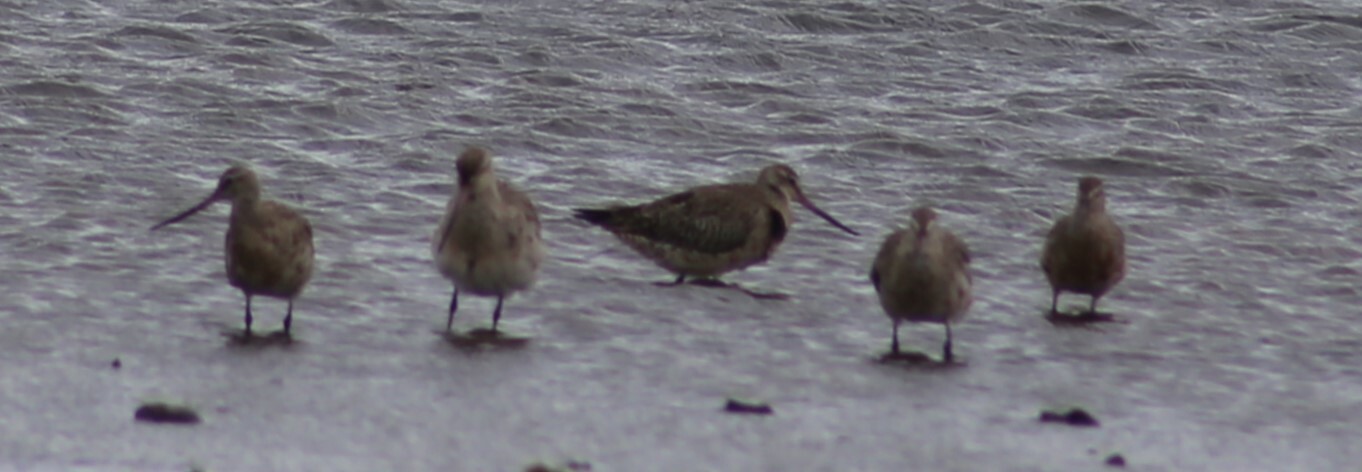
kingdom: Animalia
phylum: Chordata
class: Aves
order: Charadriiformes
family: Scolopacidae
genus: Limosa
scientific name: Limosa lapponica
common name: Bar-tailed godwit
